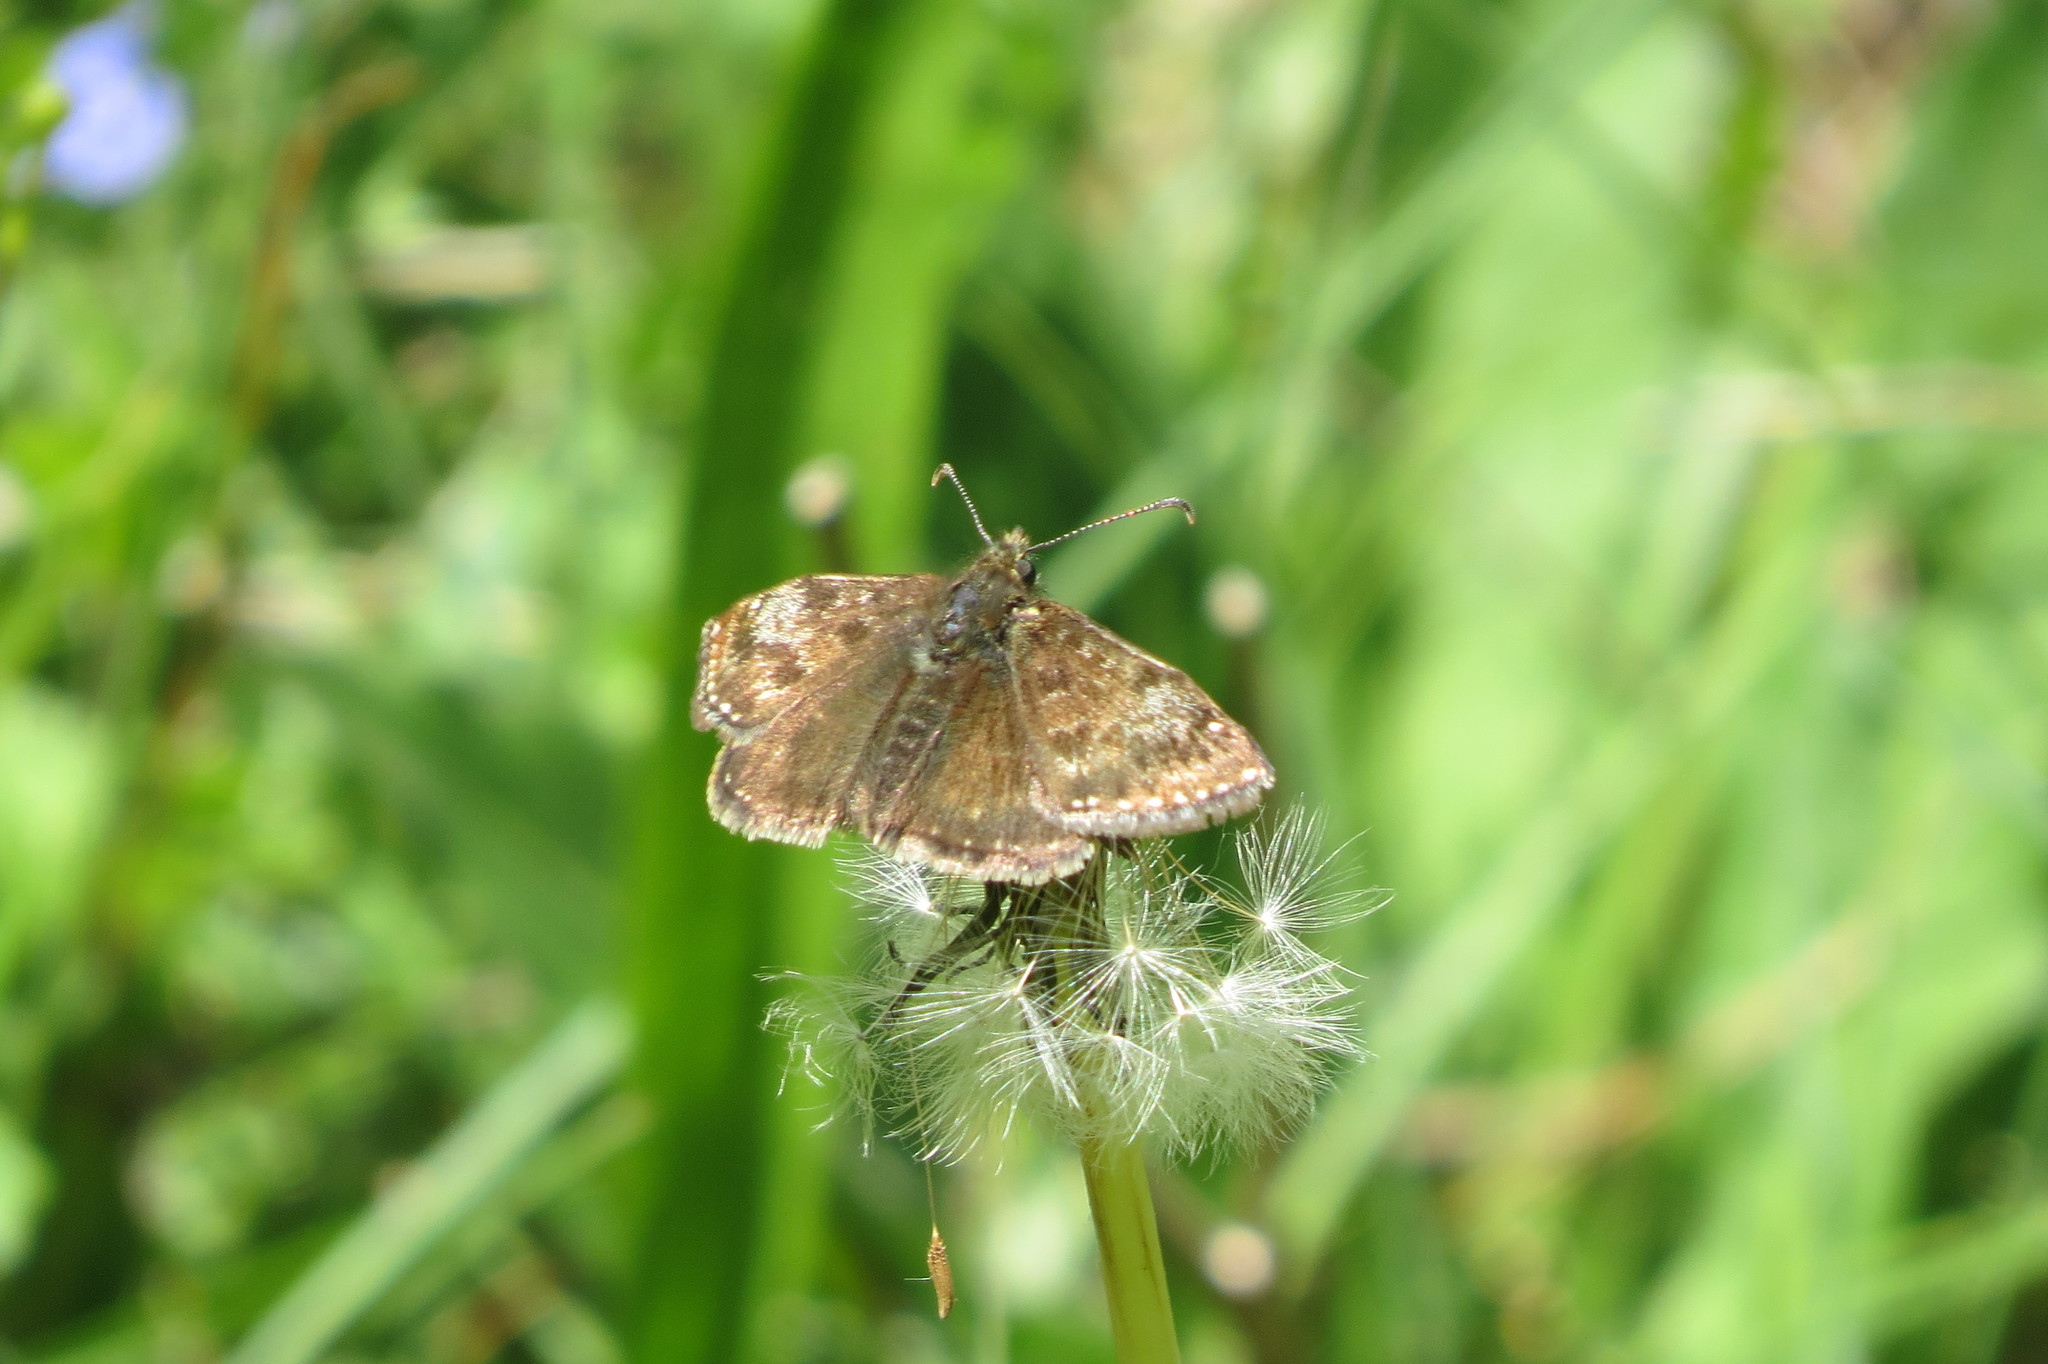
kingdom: Animalia
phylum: Arthropoda
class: Insecta
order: Lepidoptera
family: Hesperiidae
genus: Erynnis
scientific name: Erynnis tages
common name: Dingy skipper
